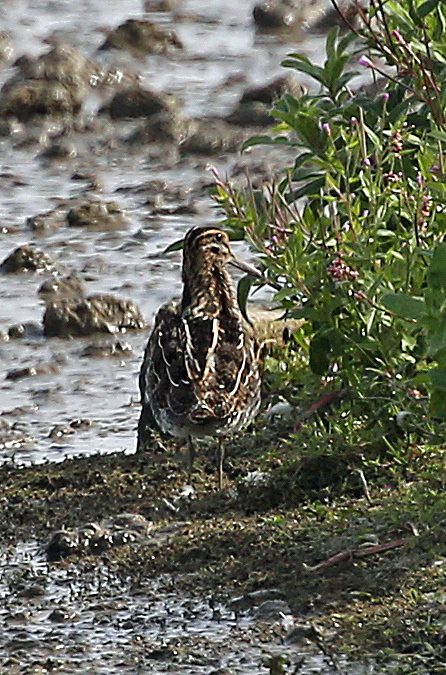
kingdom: Animalia
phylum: Chordata
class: Aves
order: Charadriiformes
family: Scolopacidae
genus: Gallinago
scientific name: Gallinago gallinago
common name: Common snipe
